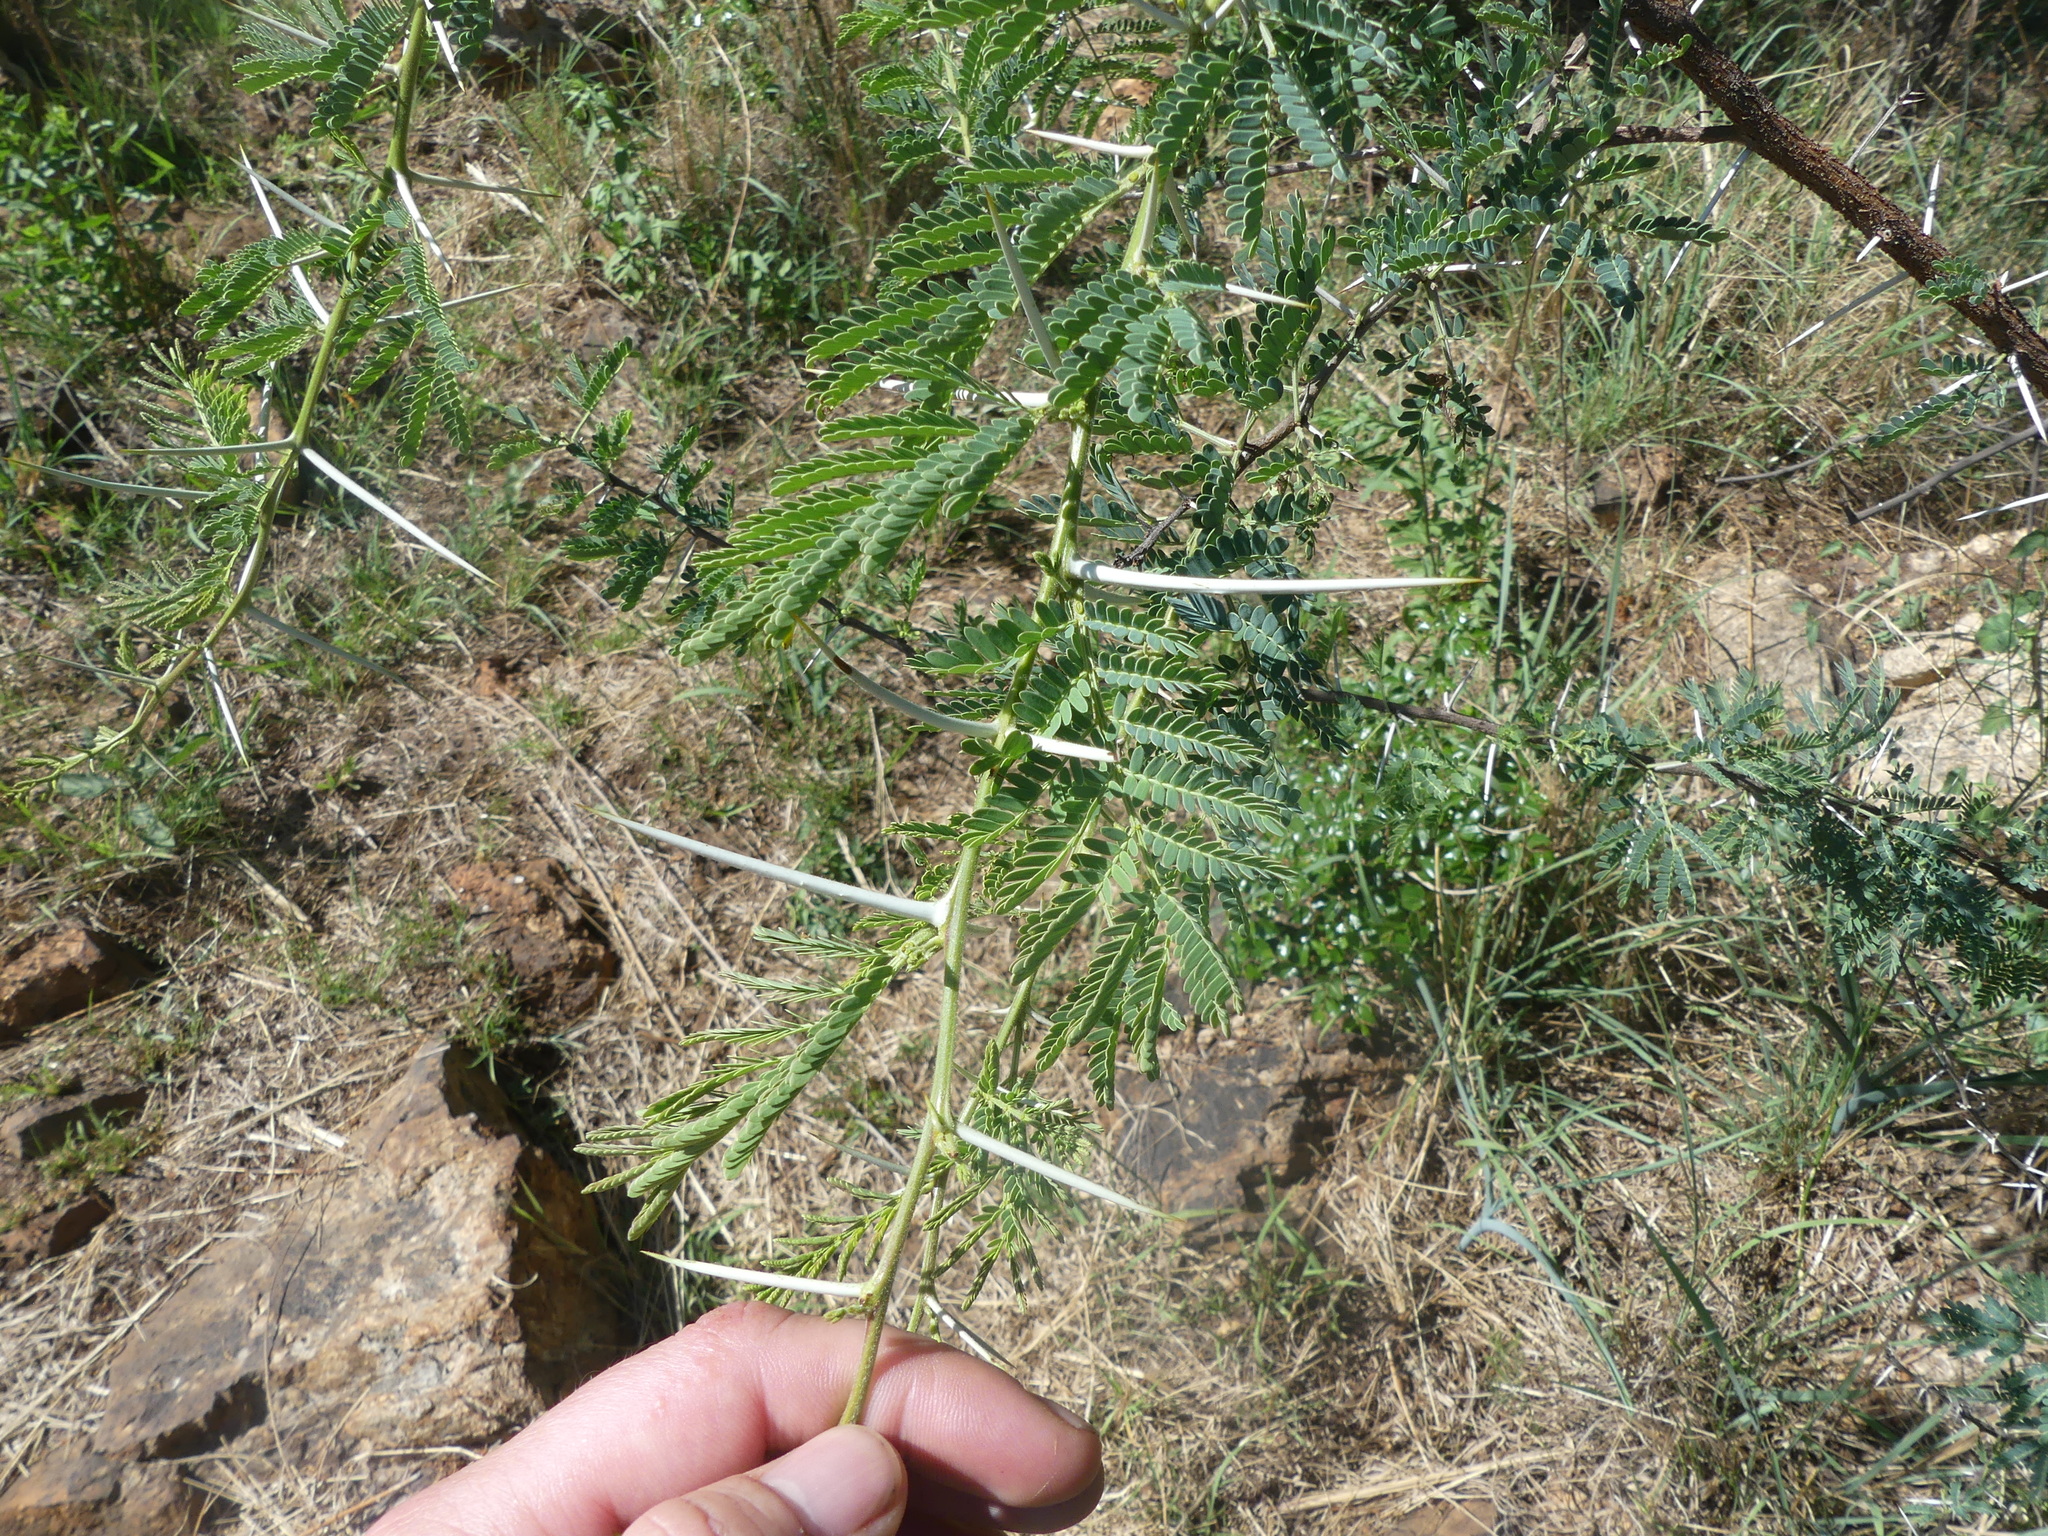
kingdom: Plantae
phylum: Tracheophyta
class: Magnoliopsida
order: Fabales
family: Fabaceae
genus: Vachellia
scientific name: Vachellia karroo
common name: Sweet thorn
